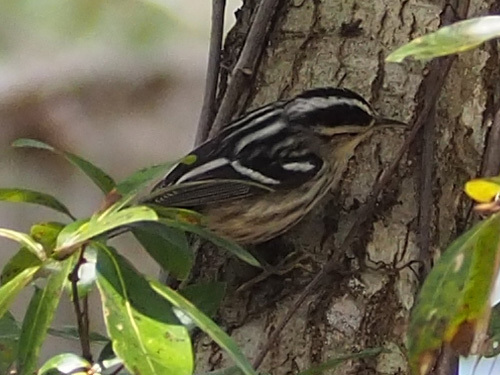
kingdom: Animalia
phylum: Chordata
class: Aves
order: Passeriformes
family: Parulidae
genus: Mniotilta
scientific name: Mniotilta varia
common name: Black-and-white warbler
